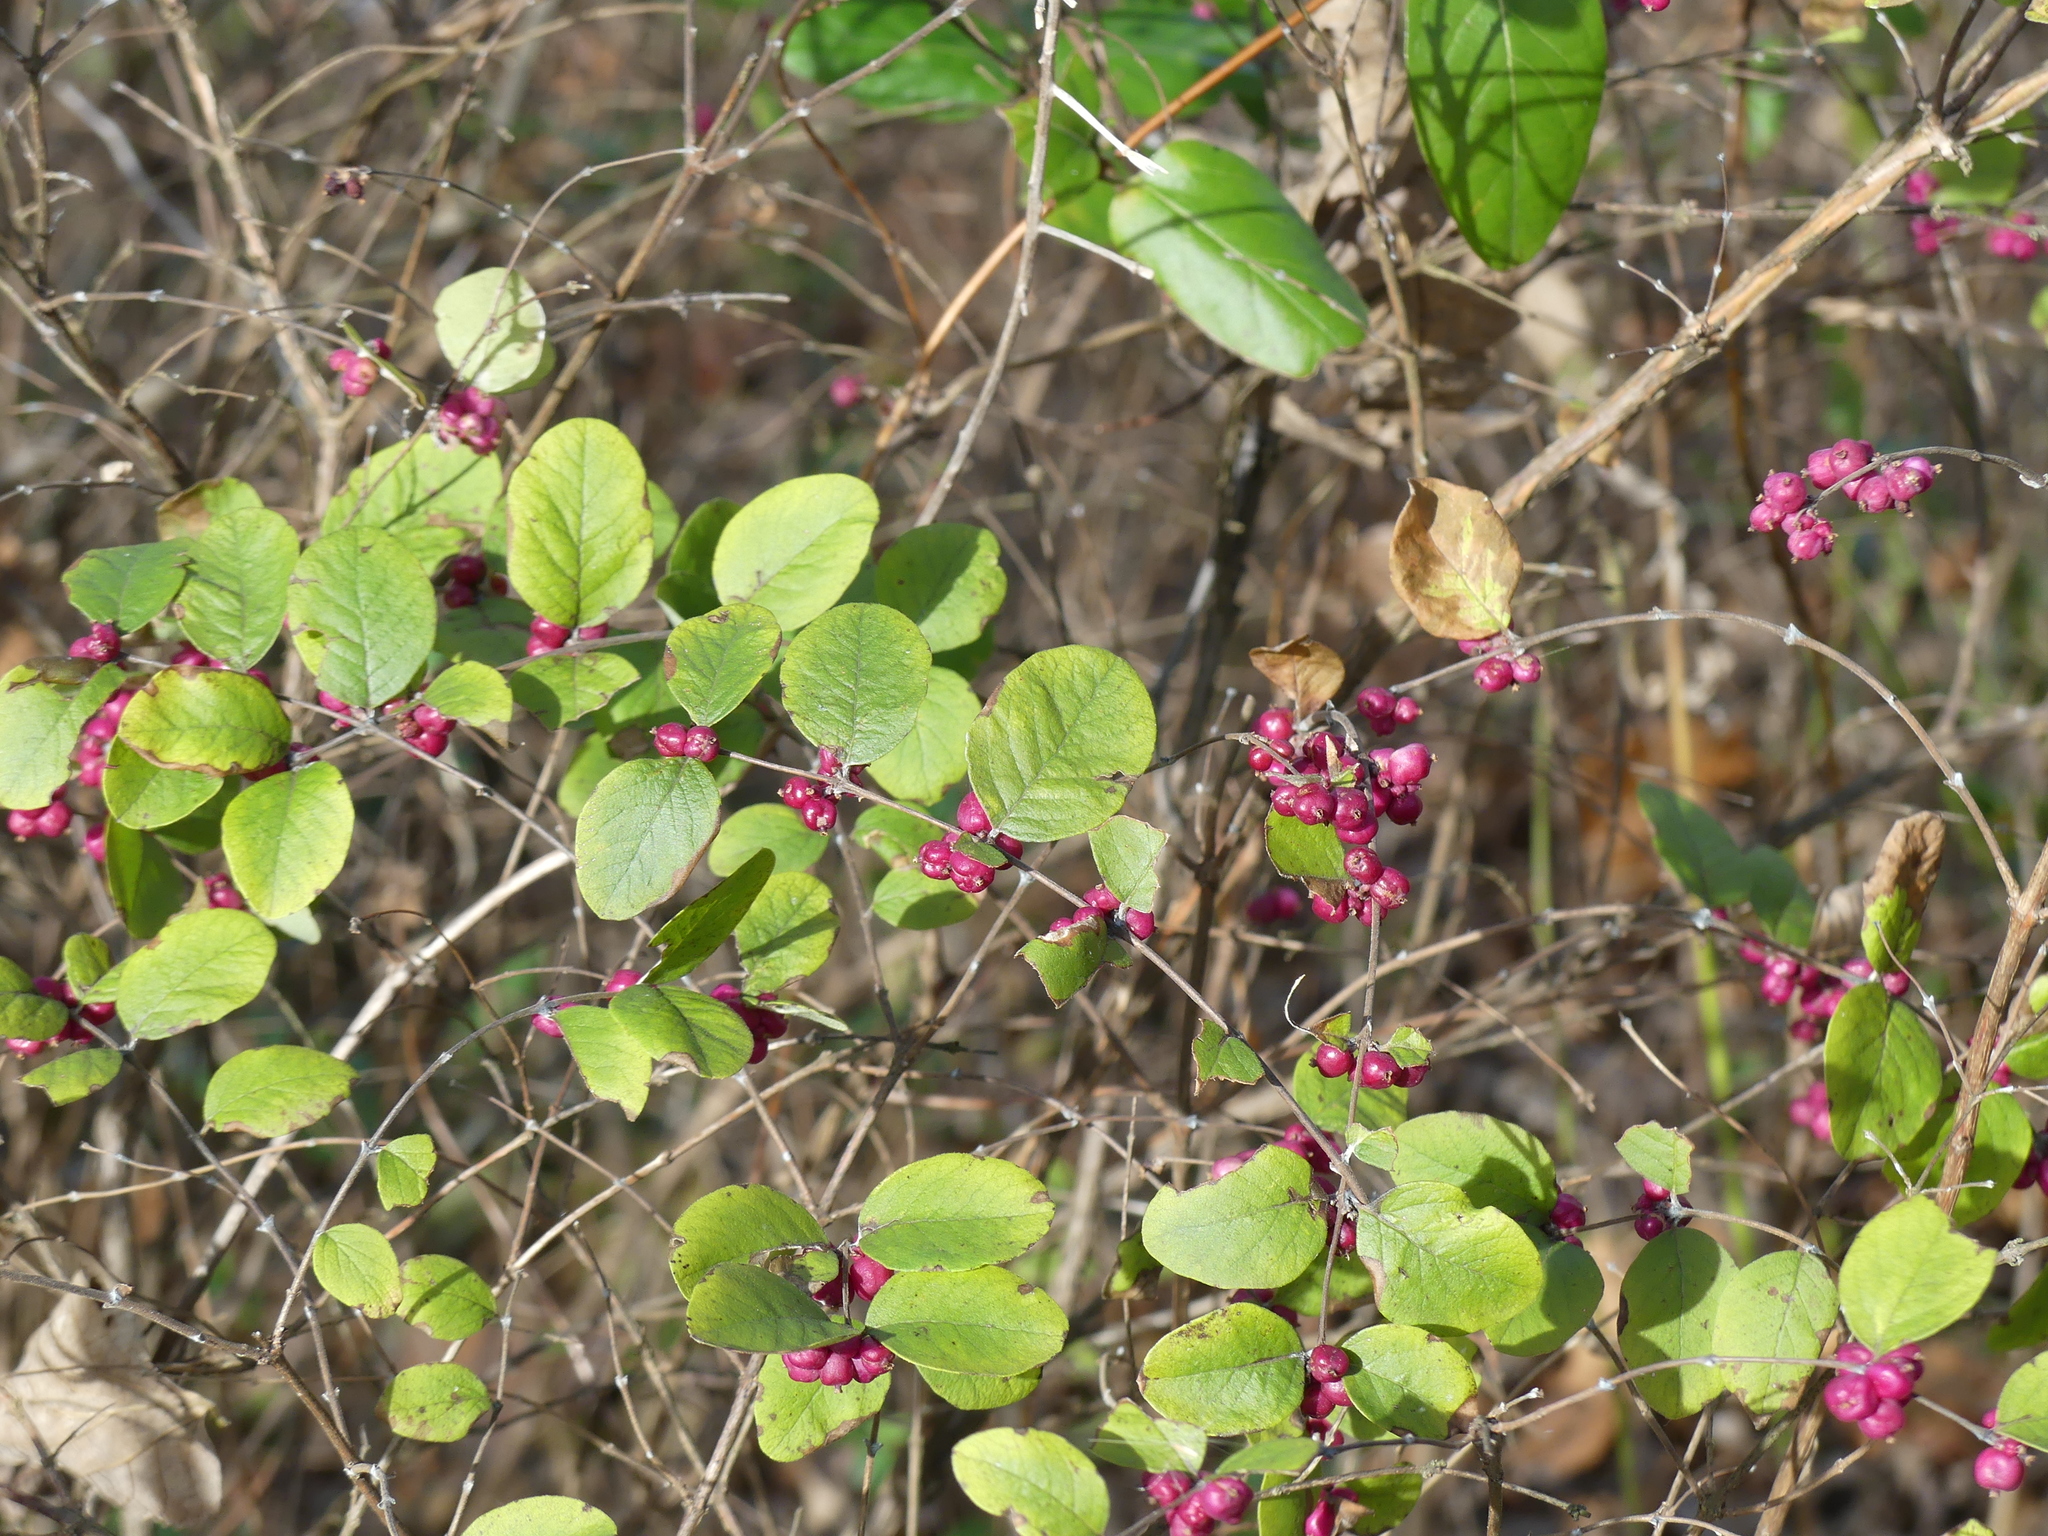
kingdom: Plantae
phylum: Tracheophyta
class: Magnoliopsida
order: Dipsacales
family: Caprifoliaceae
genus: Symphoricarpos
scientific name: Symphoricarpos orbiculatus
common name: Coralberry
